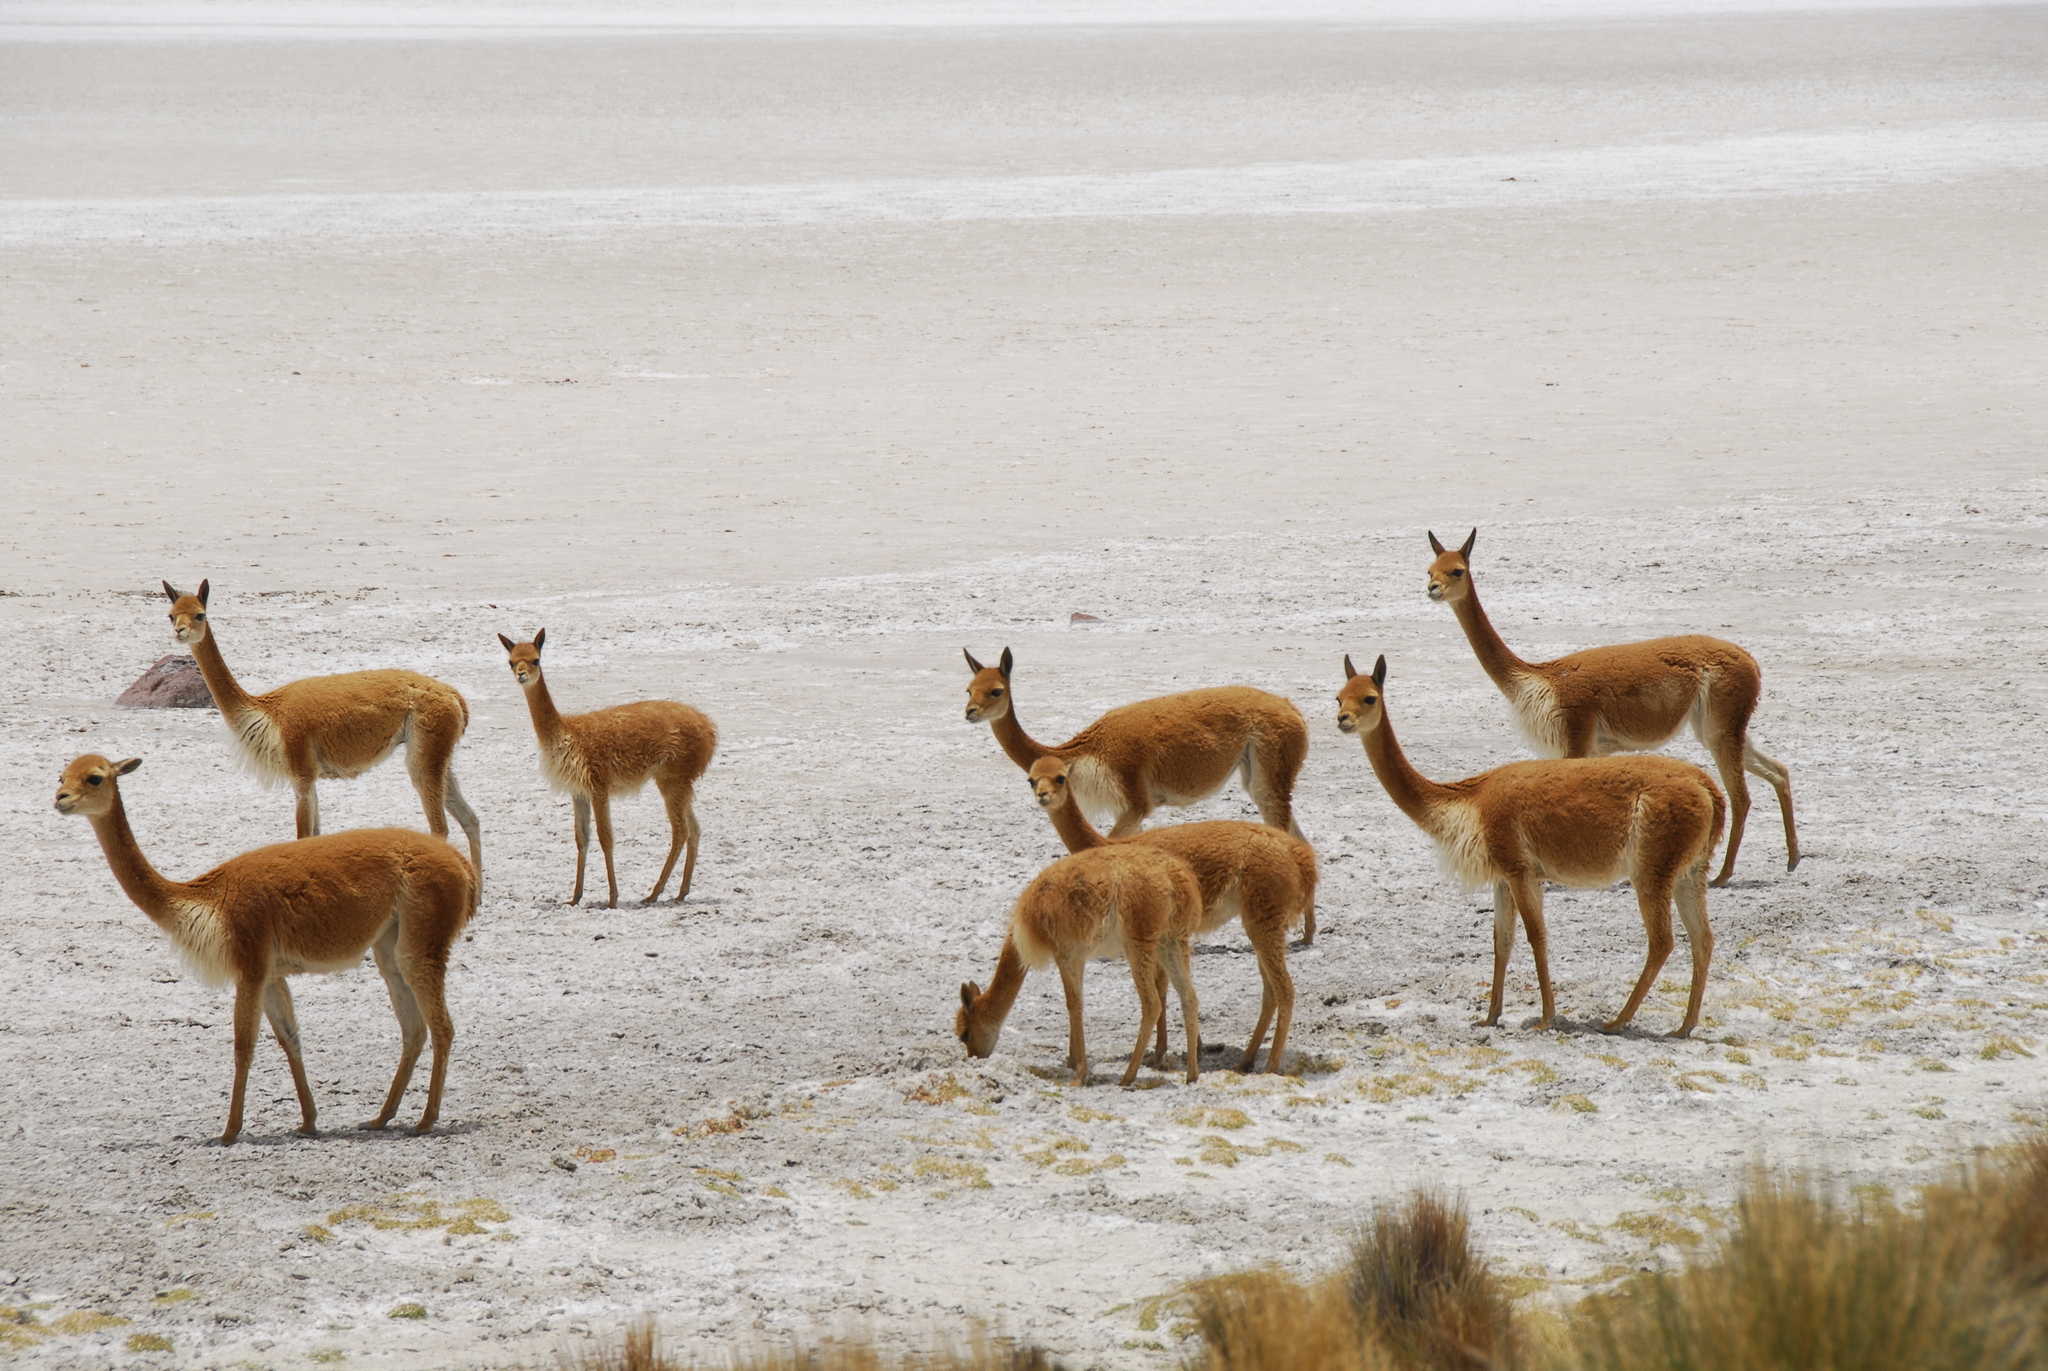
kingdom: Animalia
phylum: Chordata
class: Mammalia
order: Artiodactyla
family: Camelidae
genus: Vicugna
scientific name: Vicugna vicugna
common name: Vicugna
